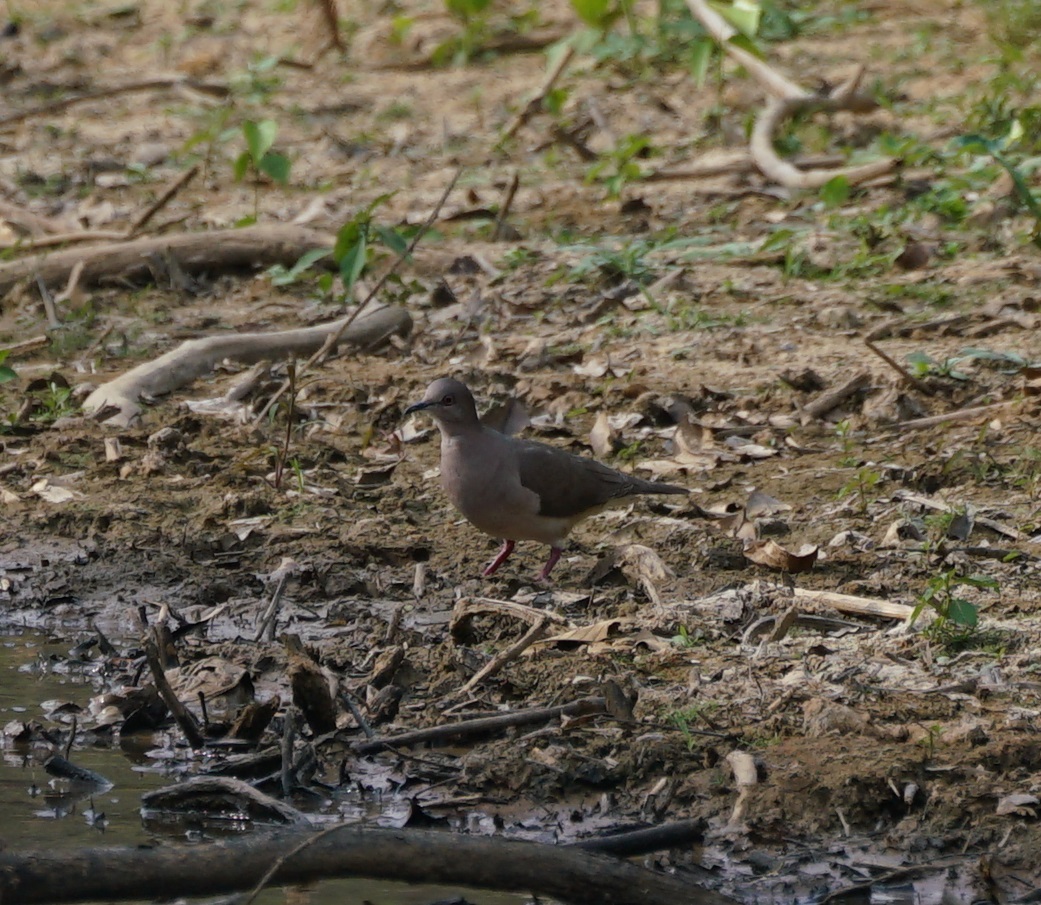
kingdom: Animalia
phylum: Chordata
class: Aves
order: Columbiformes
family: Columbidae
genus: Leptotila
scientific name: Leptotila verreauxi
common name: White-tipped dove
